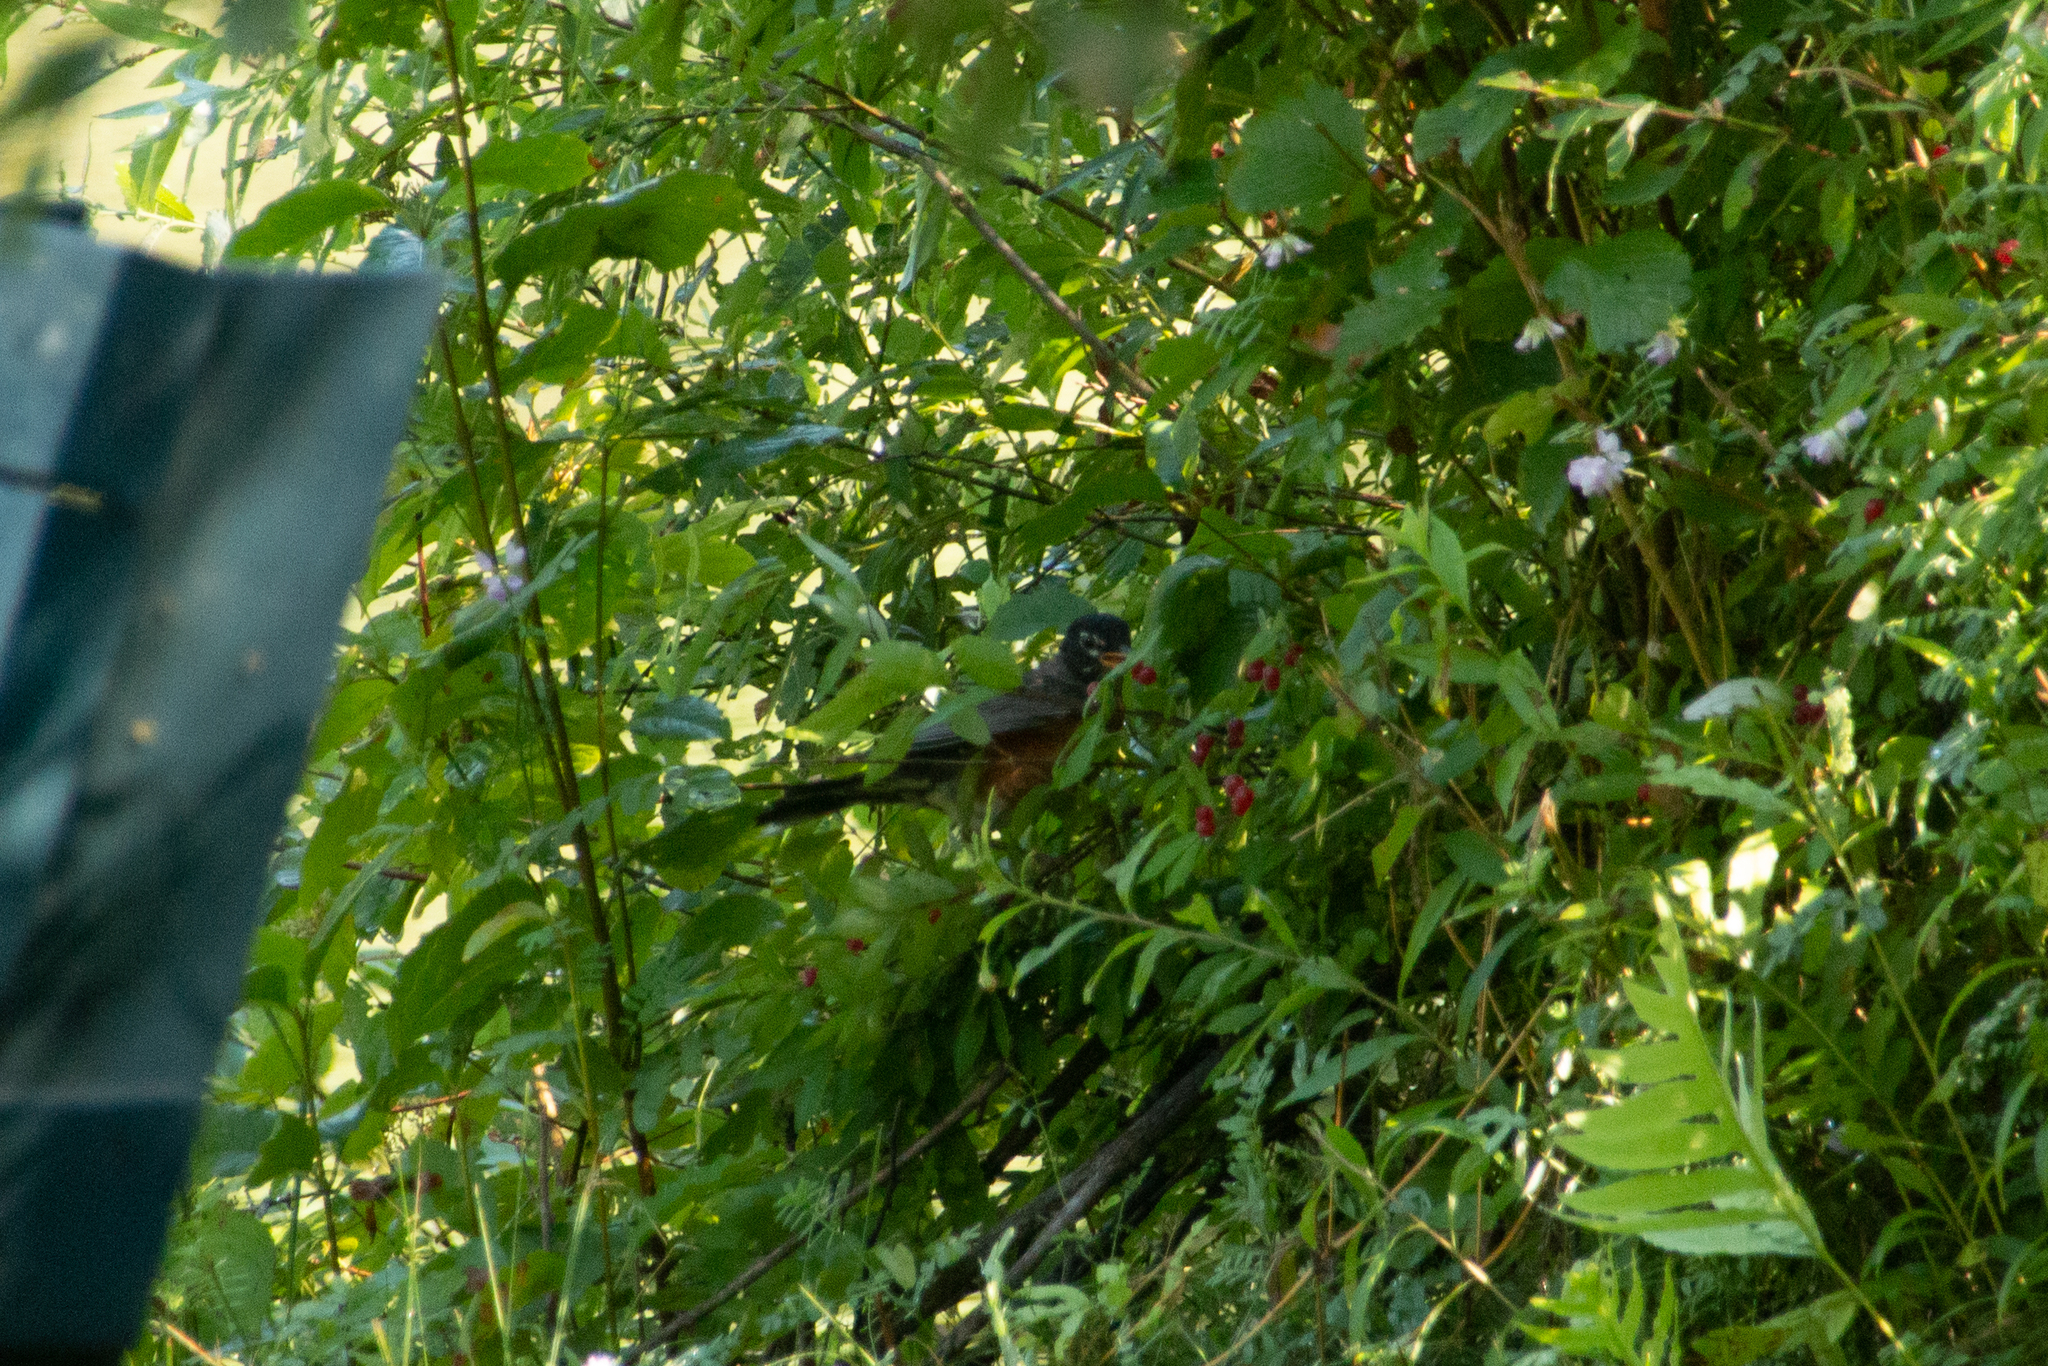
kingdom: Animalia
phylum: Chordata
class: Aves
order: Passeriformes
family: Turdidae
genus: Turdus
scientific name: Turdus migratorius
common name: American robin
